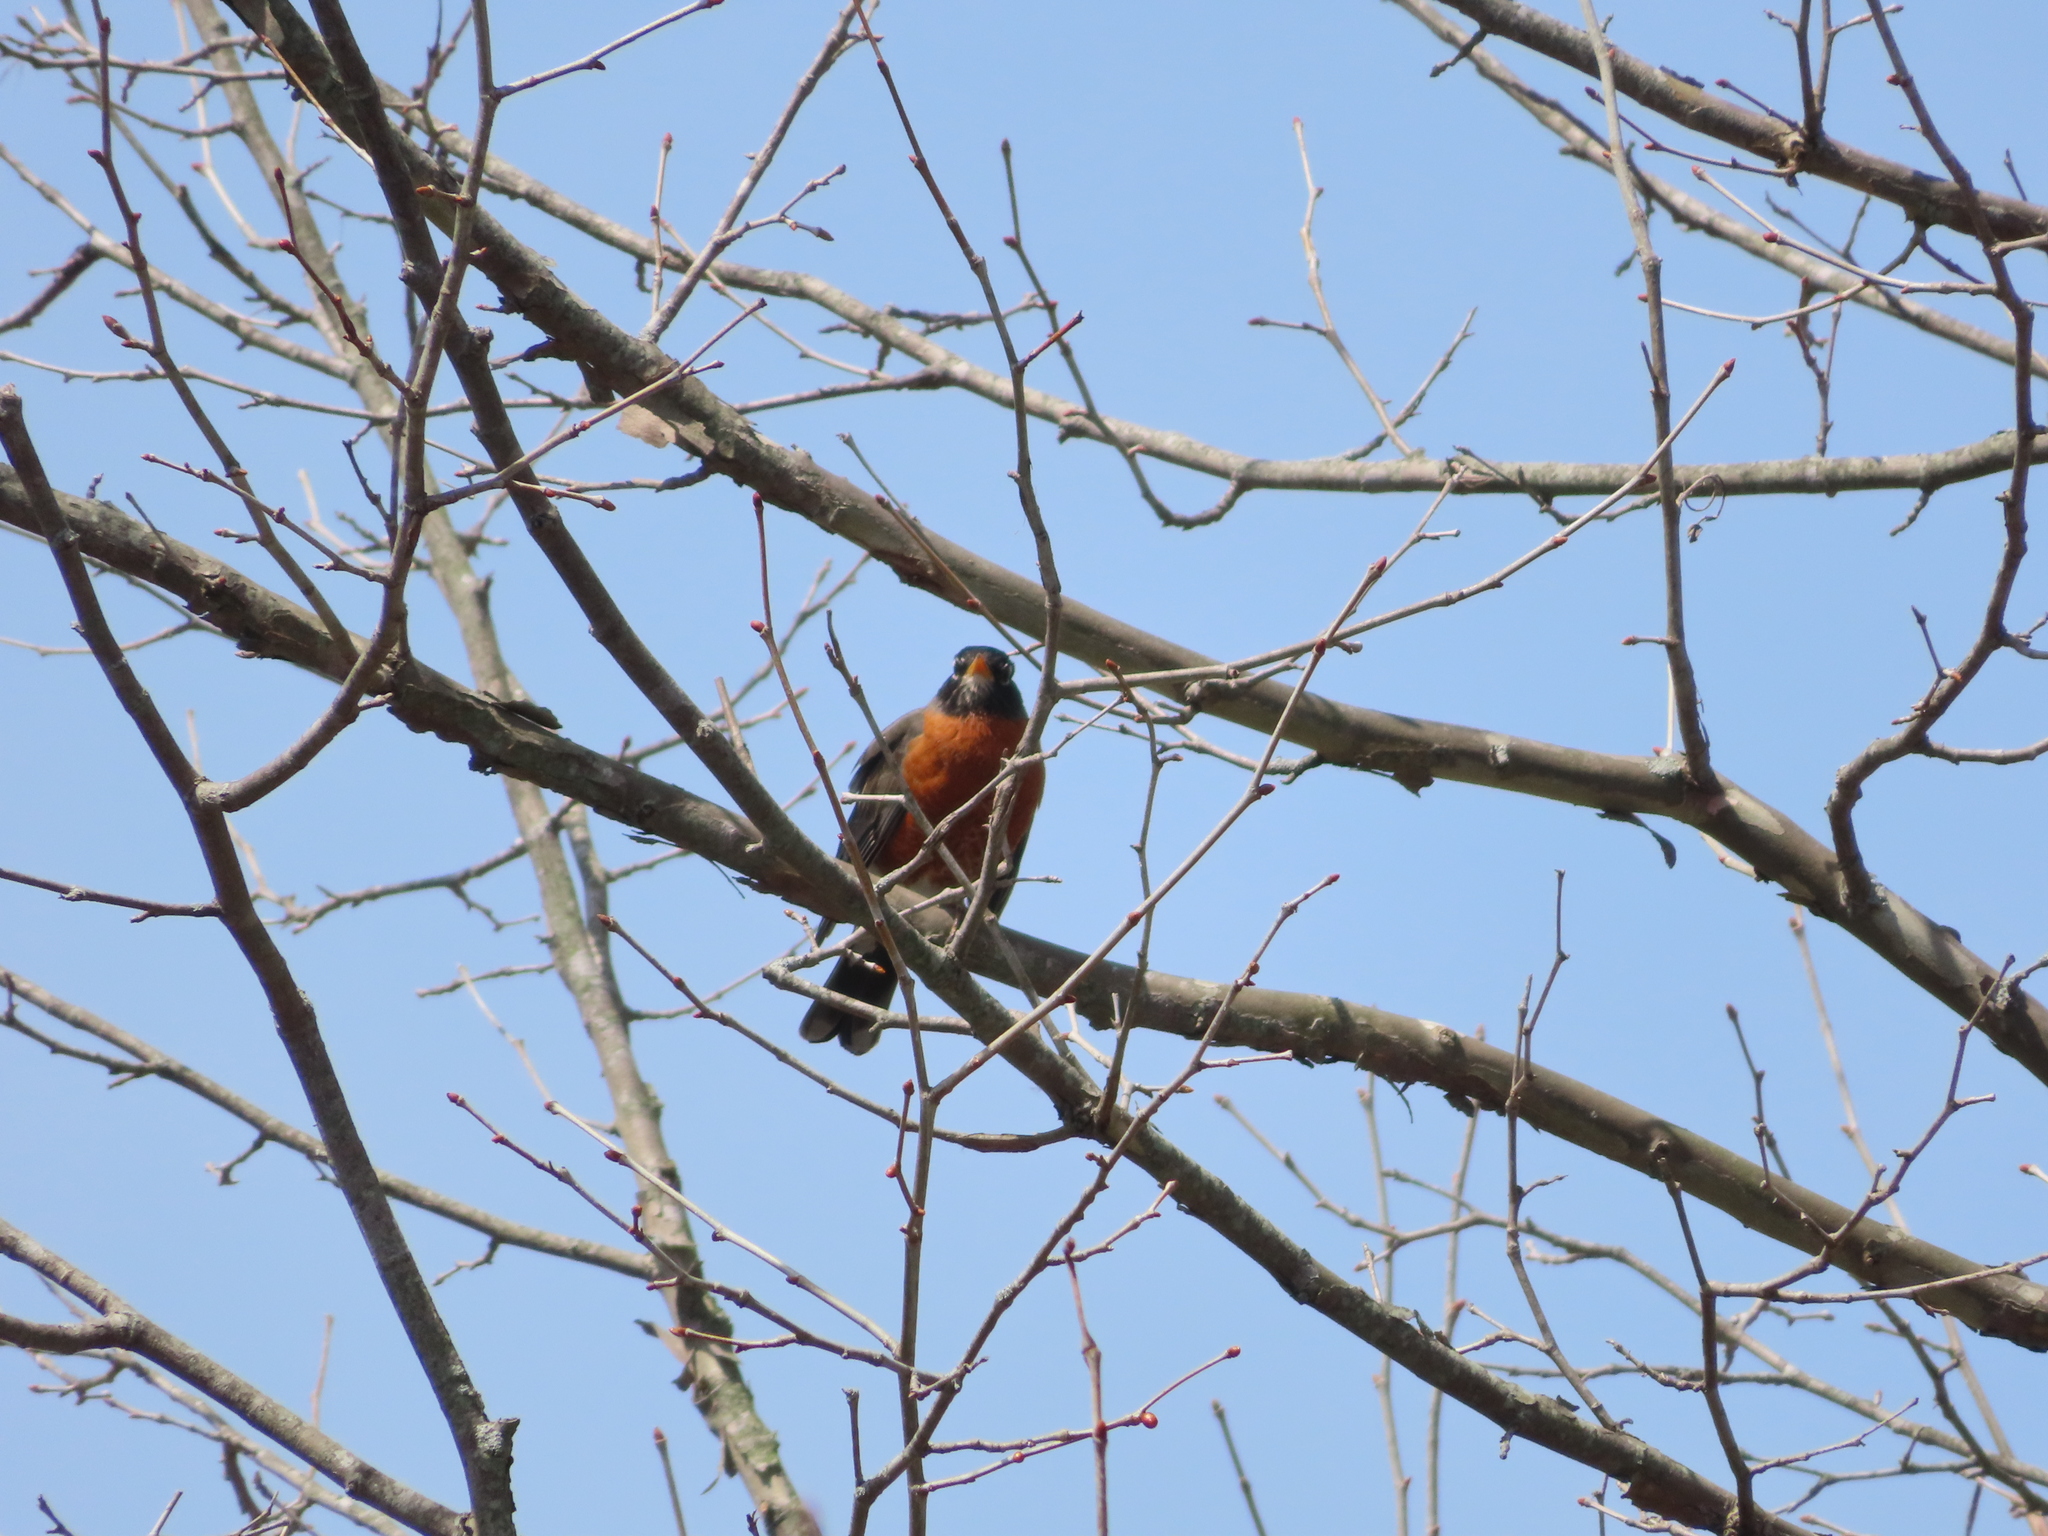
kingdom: Animalia
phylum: Chordata
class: Aves
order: Passeriformes
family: Turdidae
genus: Turdus
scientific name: Turdus migratorius
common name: American robin
